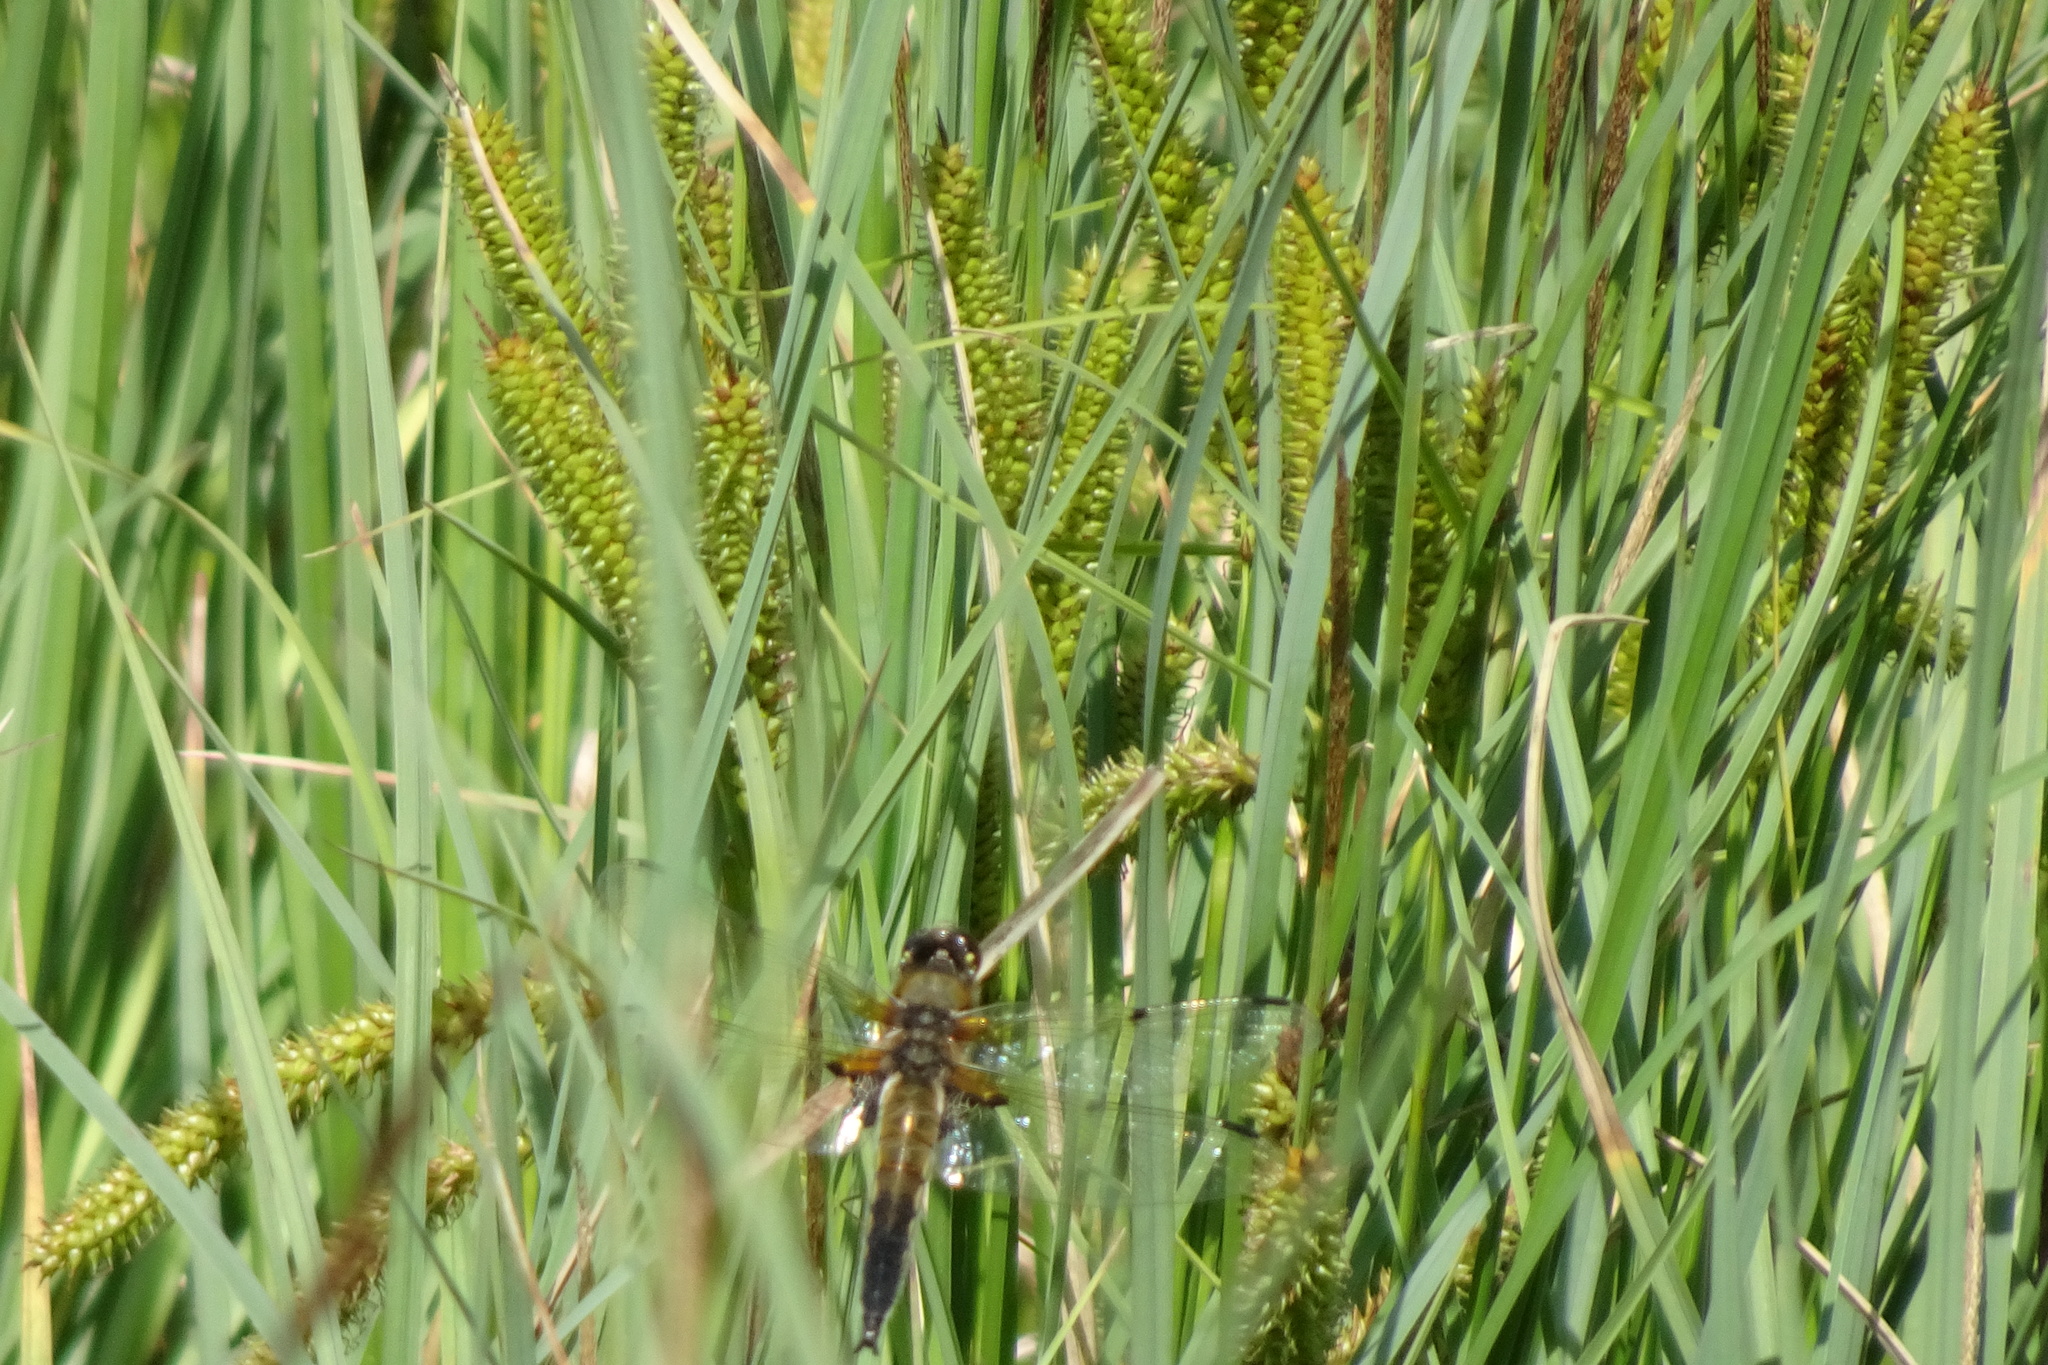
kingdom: Animalia
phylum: Arthropoda
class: Insecta
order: Odonata
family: Libellulidae
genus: Libellula
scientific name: Libellula quadrimaculata
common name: Four-spotted chaser
